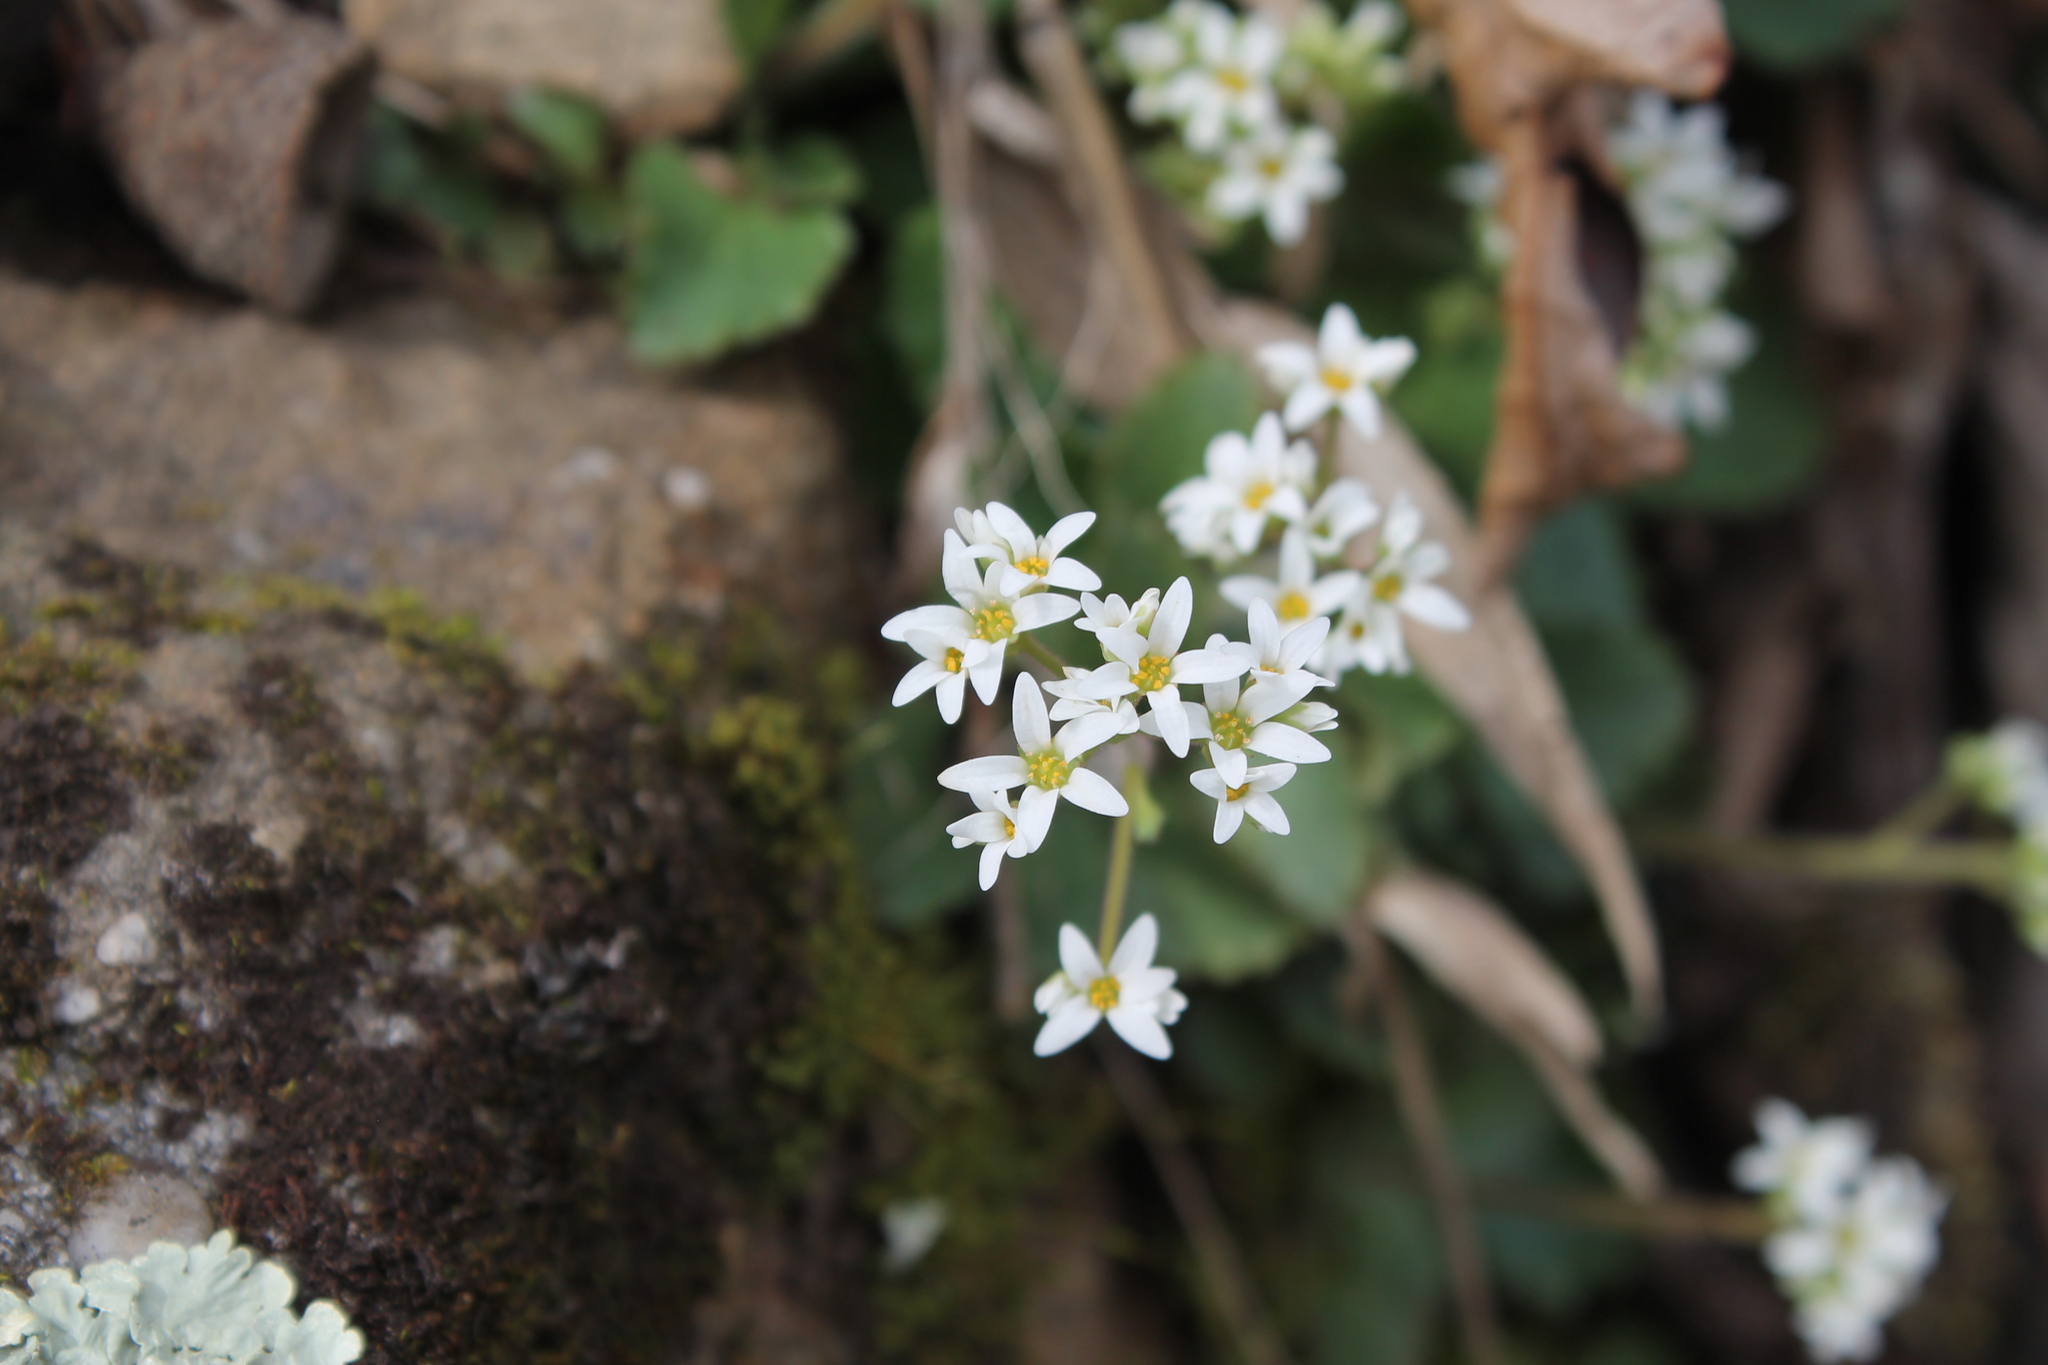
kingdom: Plantae
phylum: Tracheophyta
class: Magnoliopsida
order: Saxifragales
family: Saxifragaceae
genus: Micranthes
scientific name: Micranthes virginiensis
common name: Early saxifrage
